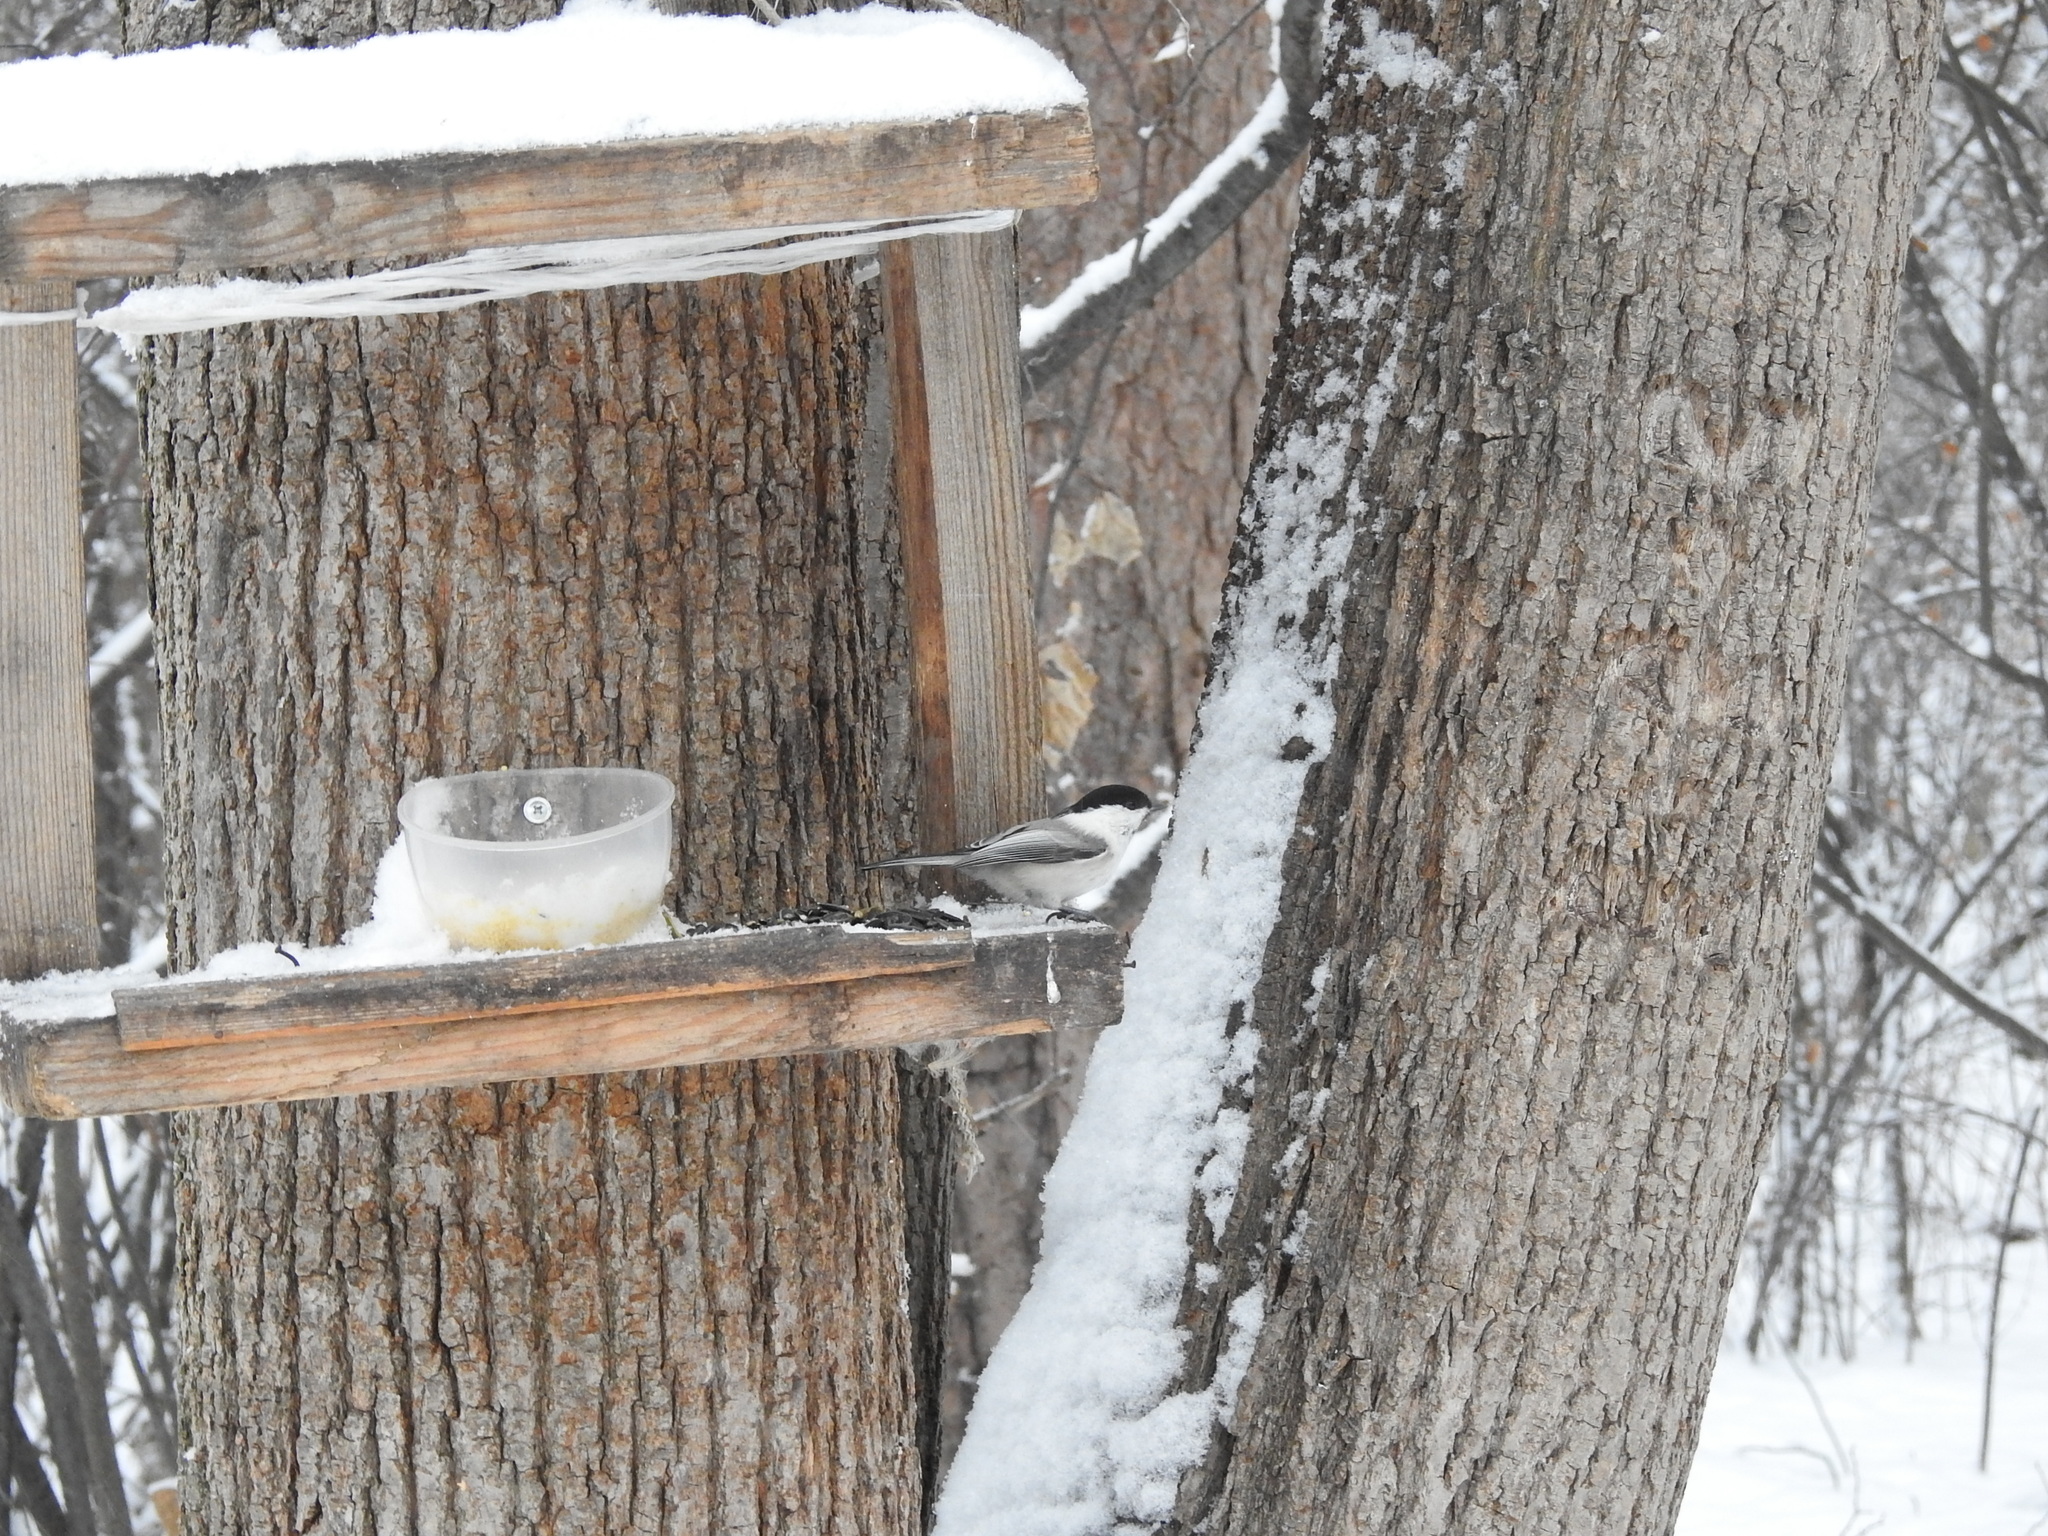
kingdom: Animalia
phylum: Chordata
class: Aves
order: Passeriformes
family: Paridae
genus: Poecile
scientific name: Poecile montanus
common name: Willow tit
